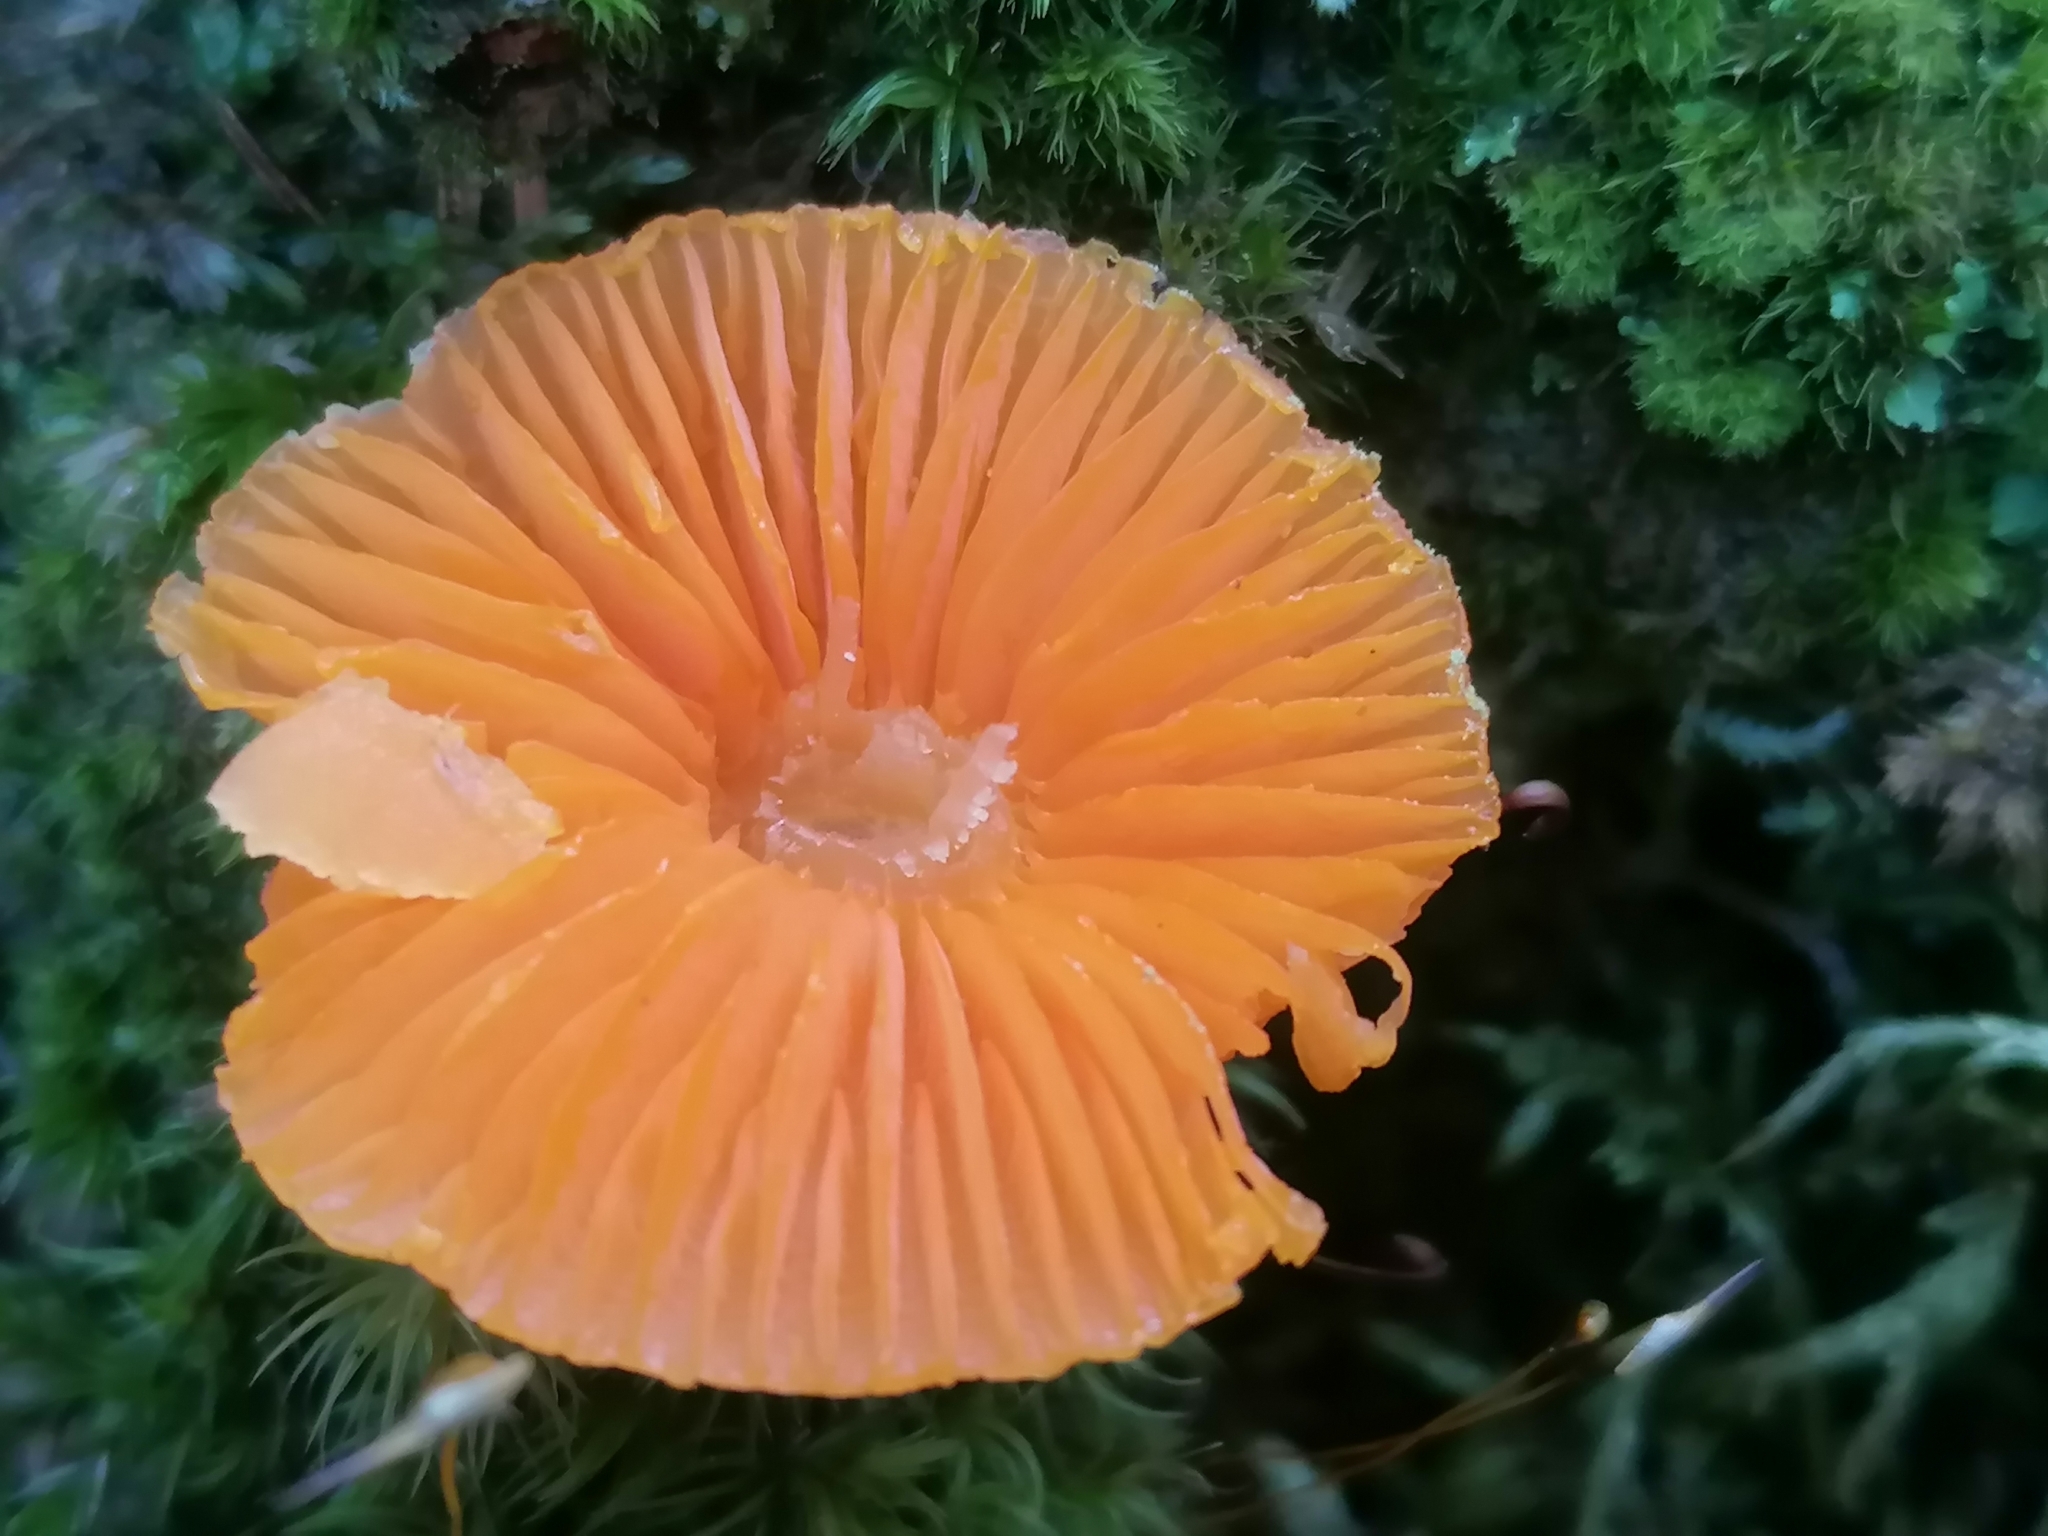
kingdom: Fungi
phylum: Basidiomycota
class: Agaricomycetes
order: Agaricales
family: Hygrophoraceae
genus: Humidicutis
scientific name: Humidicutis marginata
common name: Orange gilled waxcap
